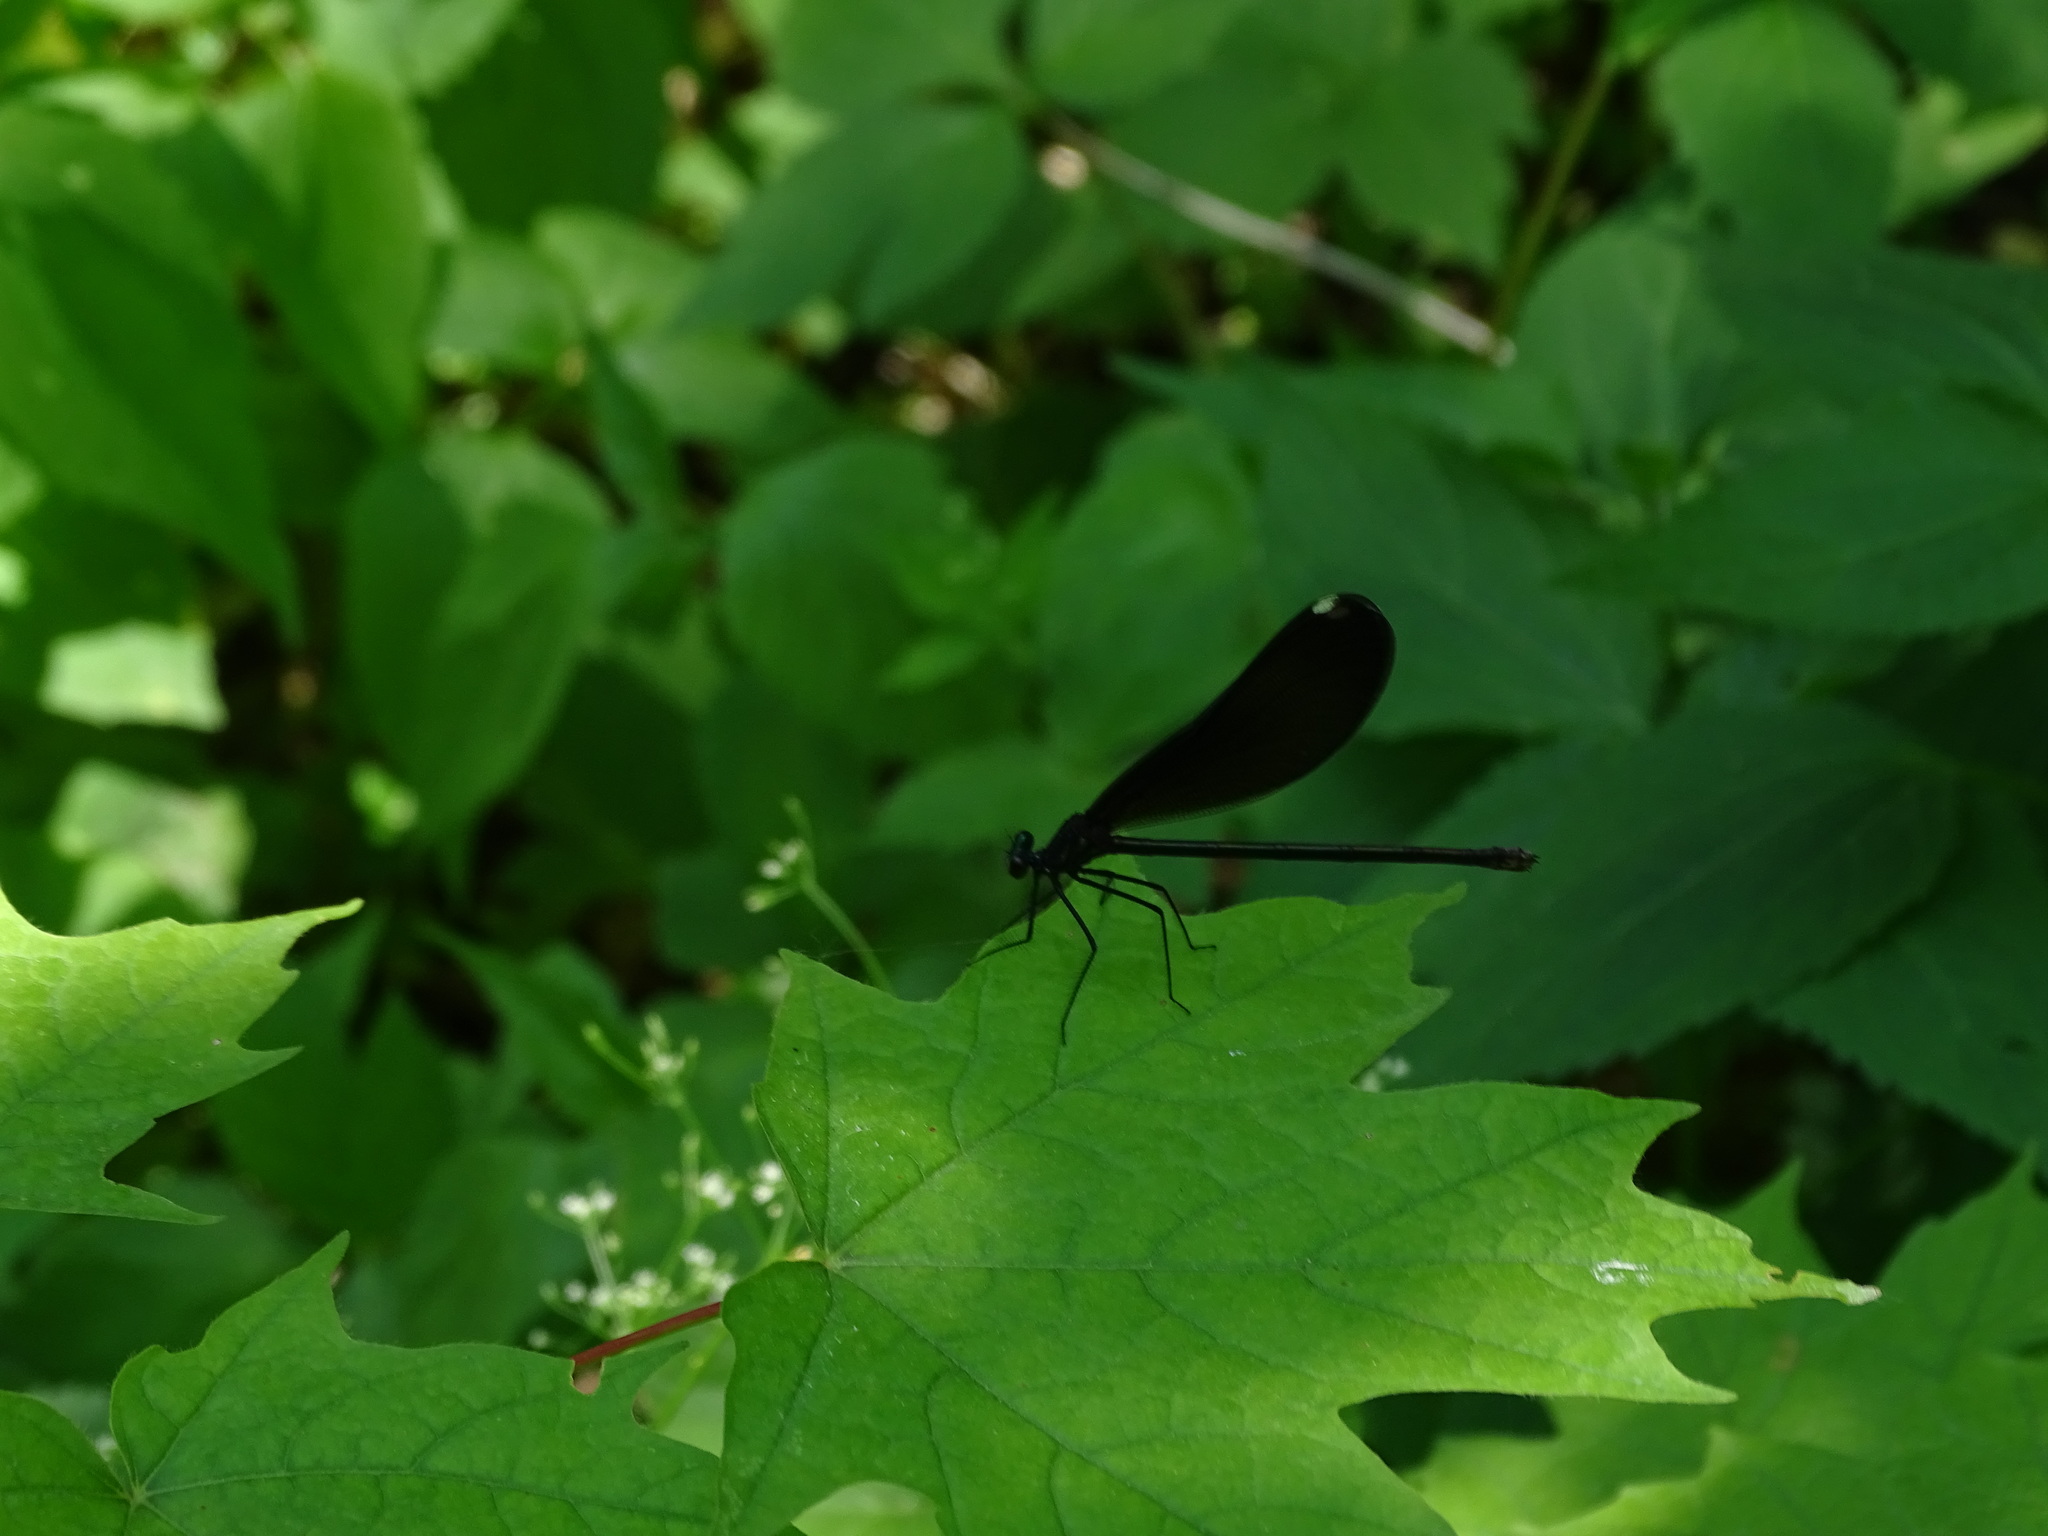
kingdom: Animalia
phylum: Arthropoda
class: Insecta
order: Odonata
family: Calopterygidae
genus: Calopteryx
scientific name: Calopteryx maculata
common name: Ebony jewelwing
